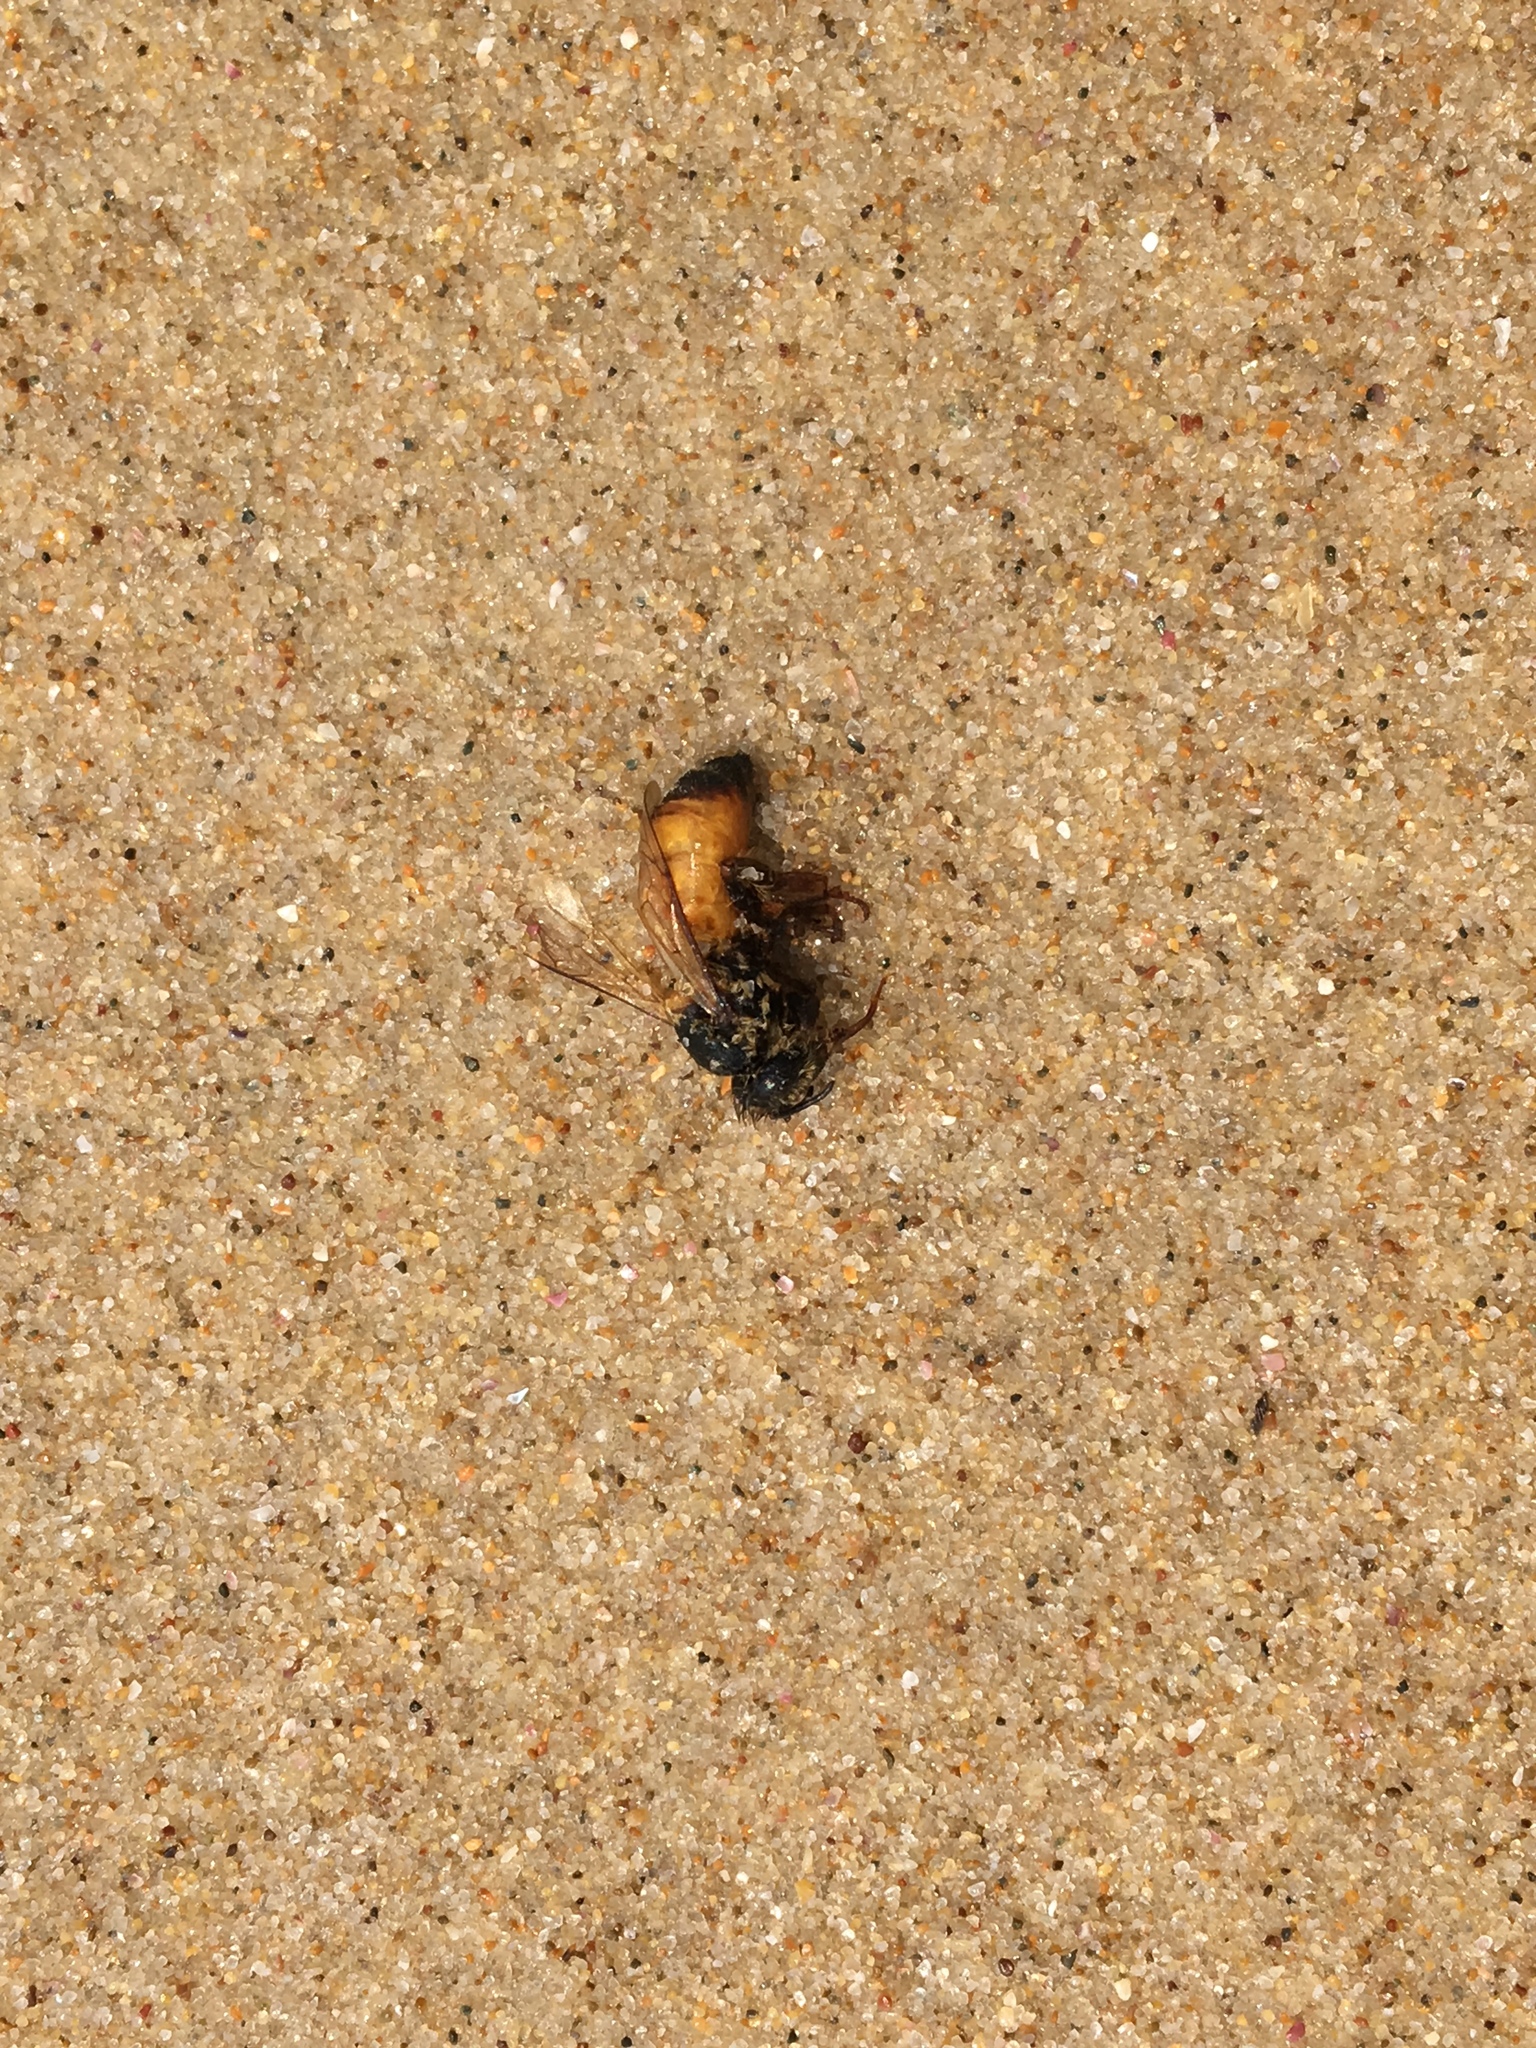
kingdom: Animalia
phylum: Arthropoda
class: Insecta
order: Hymenoptera
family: Apidae
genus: Apis
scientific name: Apis mellifera
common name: Honey bee
